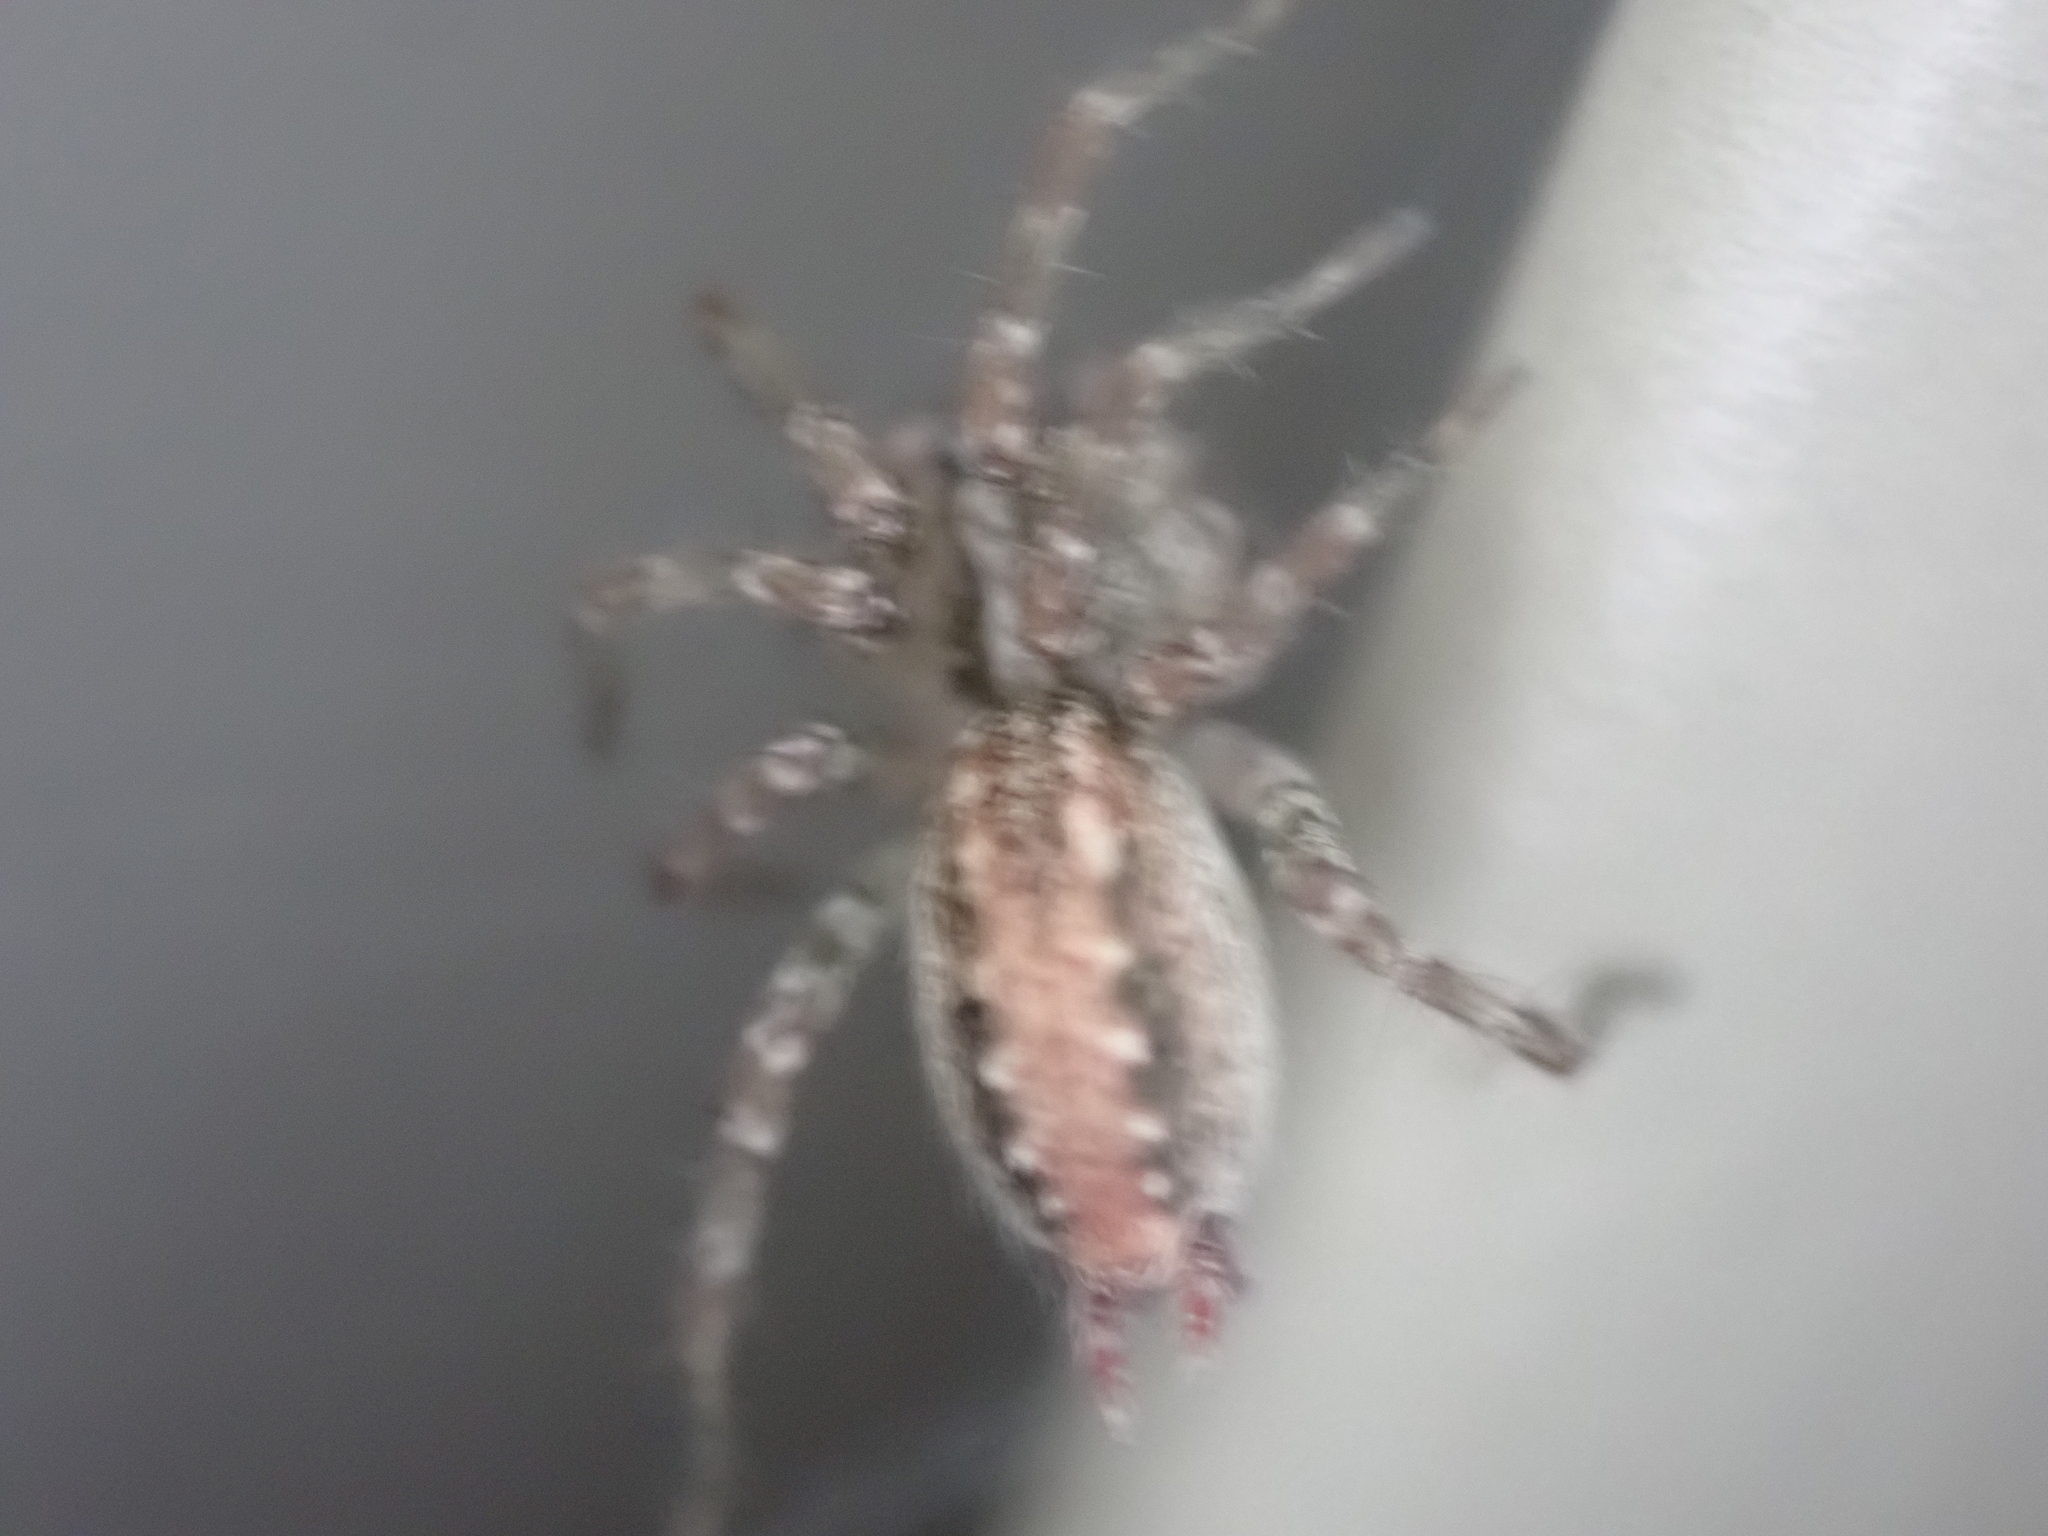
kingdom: Animalia
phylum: Arthropoda
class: Arachnida
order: Araneae
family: Agelenidae
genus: Barronopsis
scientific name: Barronopsis texana
